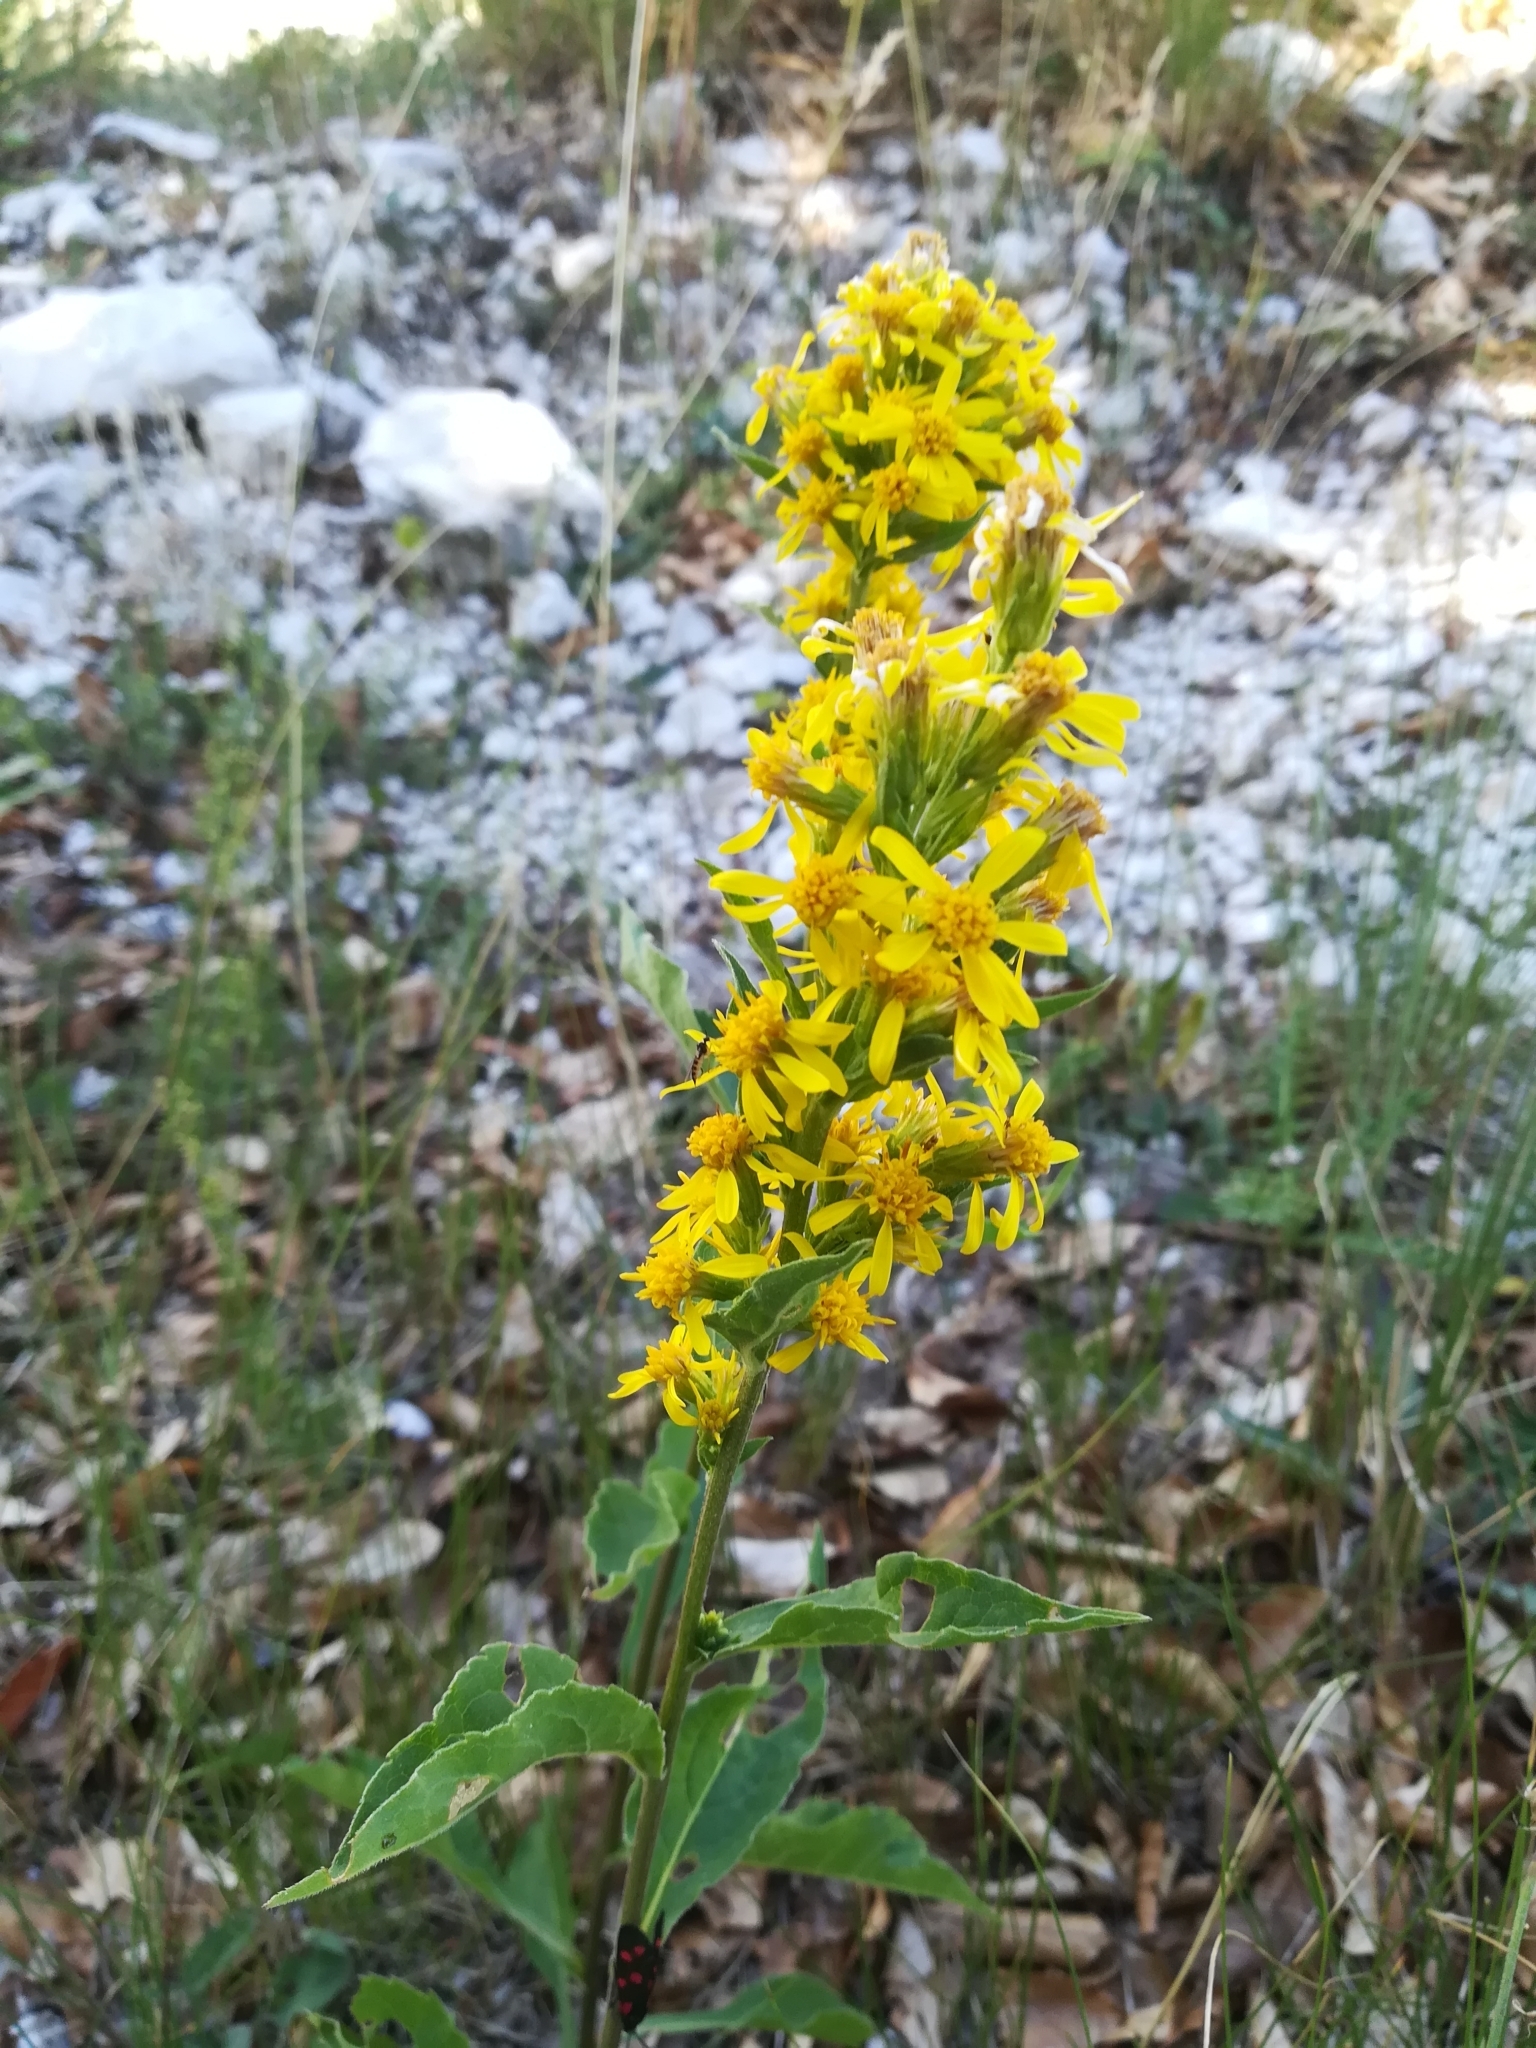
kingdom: Plantae
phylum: Tracheophyta
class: Magnoliopsida
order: Asterales
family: Asteraceae
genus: Solidago
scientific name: Solidago virgaurea
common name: Goldenrod
